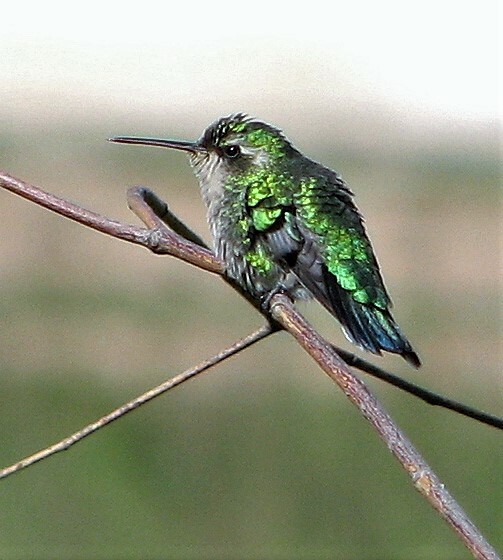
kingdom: Animalia
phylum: Chordata
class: Aves
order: Apodiformes
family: Trochilidae
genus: Chlorostilbon
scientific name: Chlorostilbon lucidus
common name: Glittering-bellied emerald
